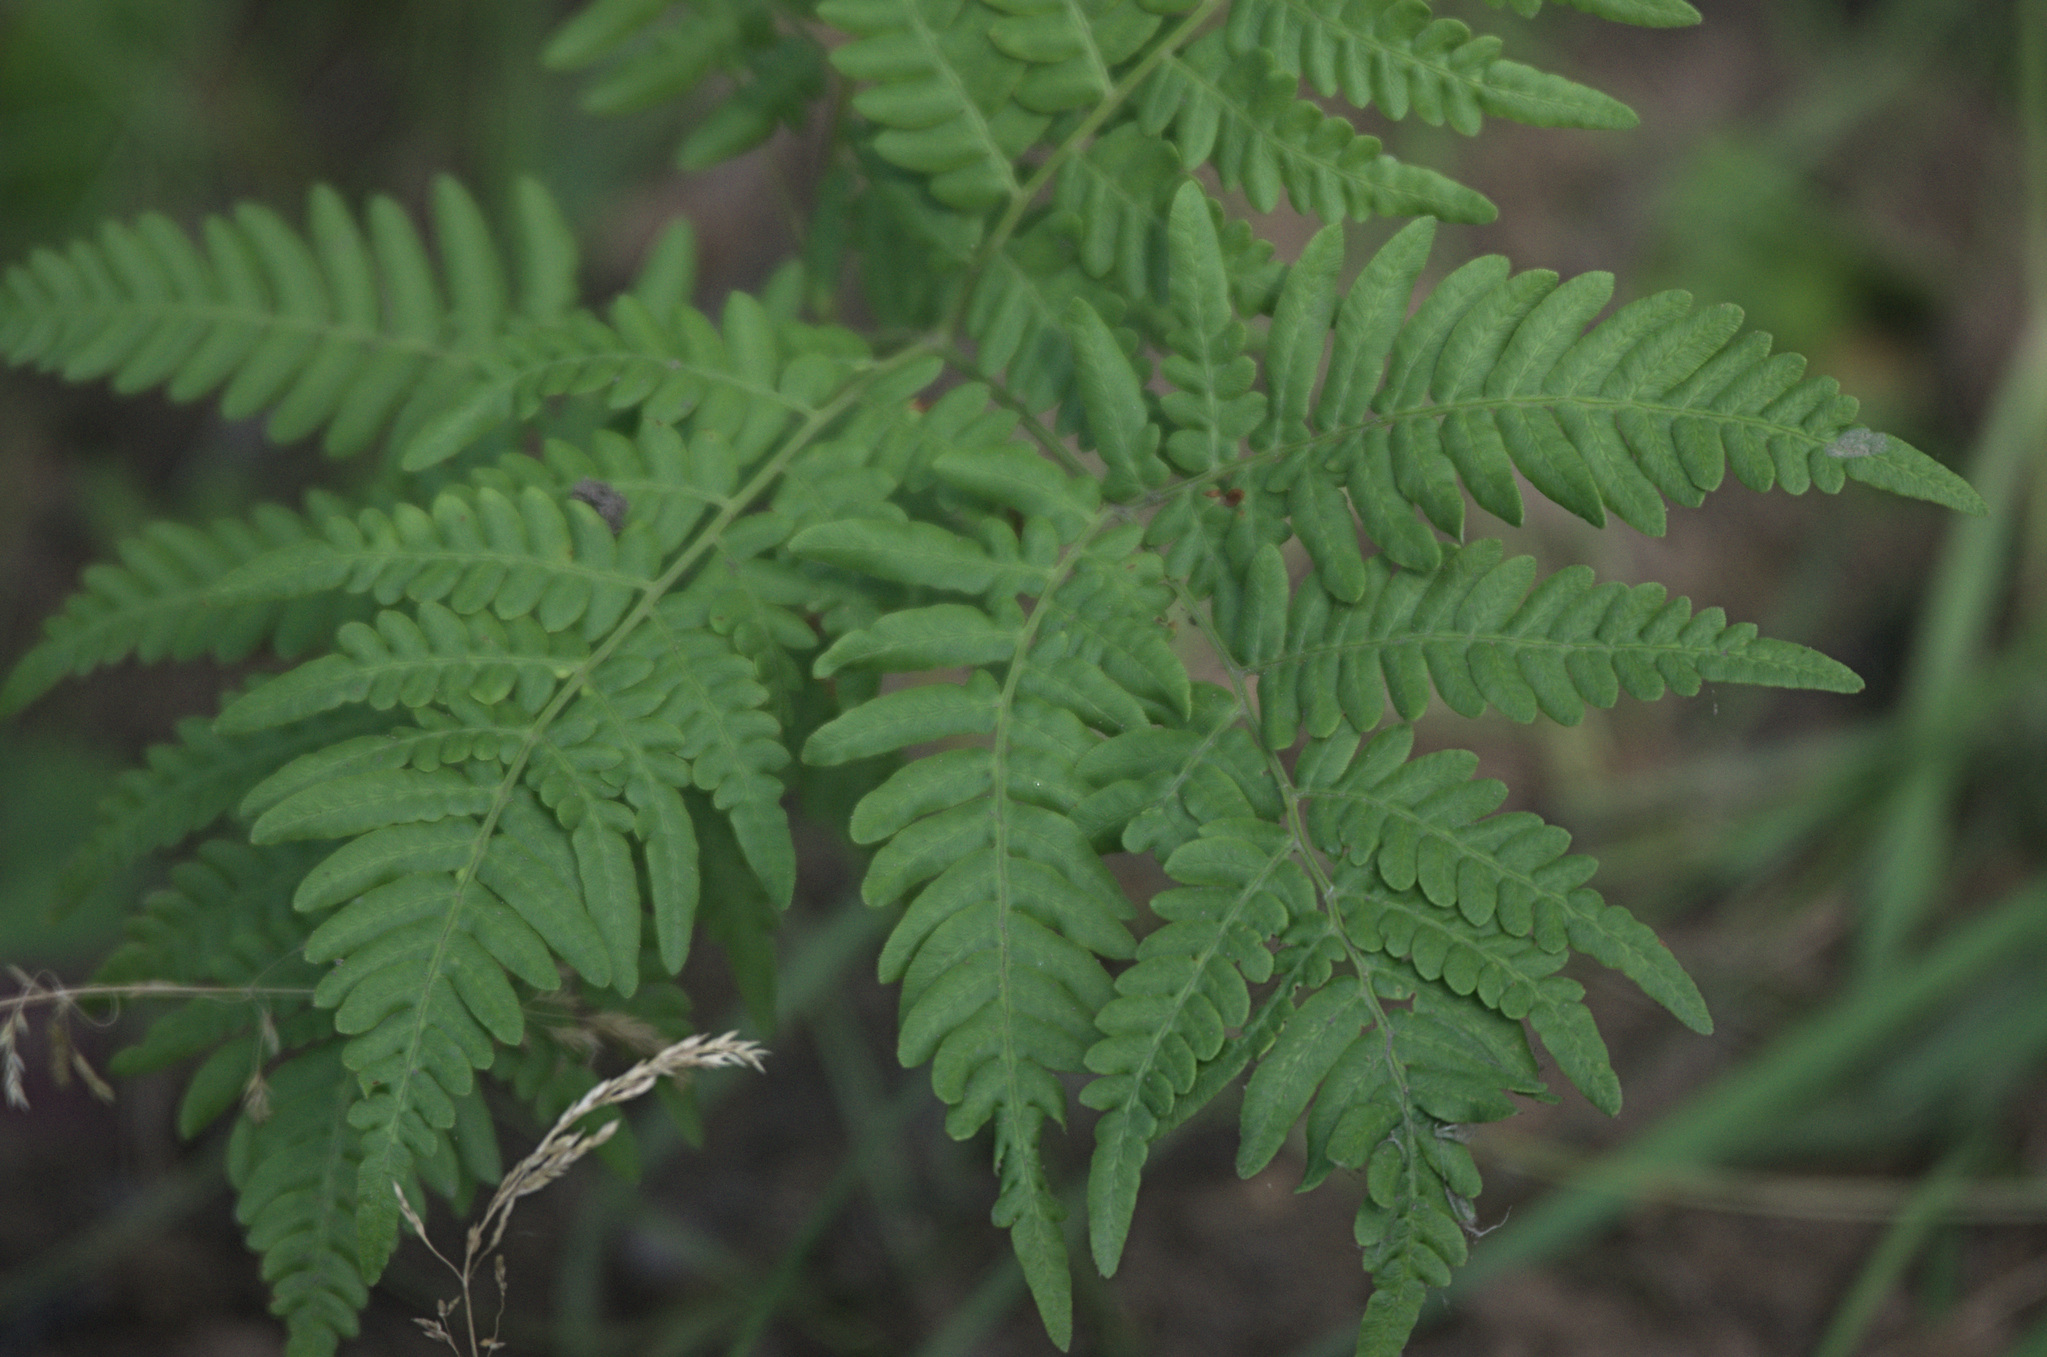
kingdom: Plantae
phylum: Tracheophyta
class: Polypodiopsida
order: Polypodiales
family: Dennstaedtiaceae
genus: Pteridium
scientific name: Pteridium aquilinum
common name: Bracken
